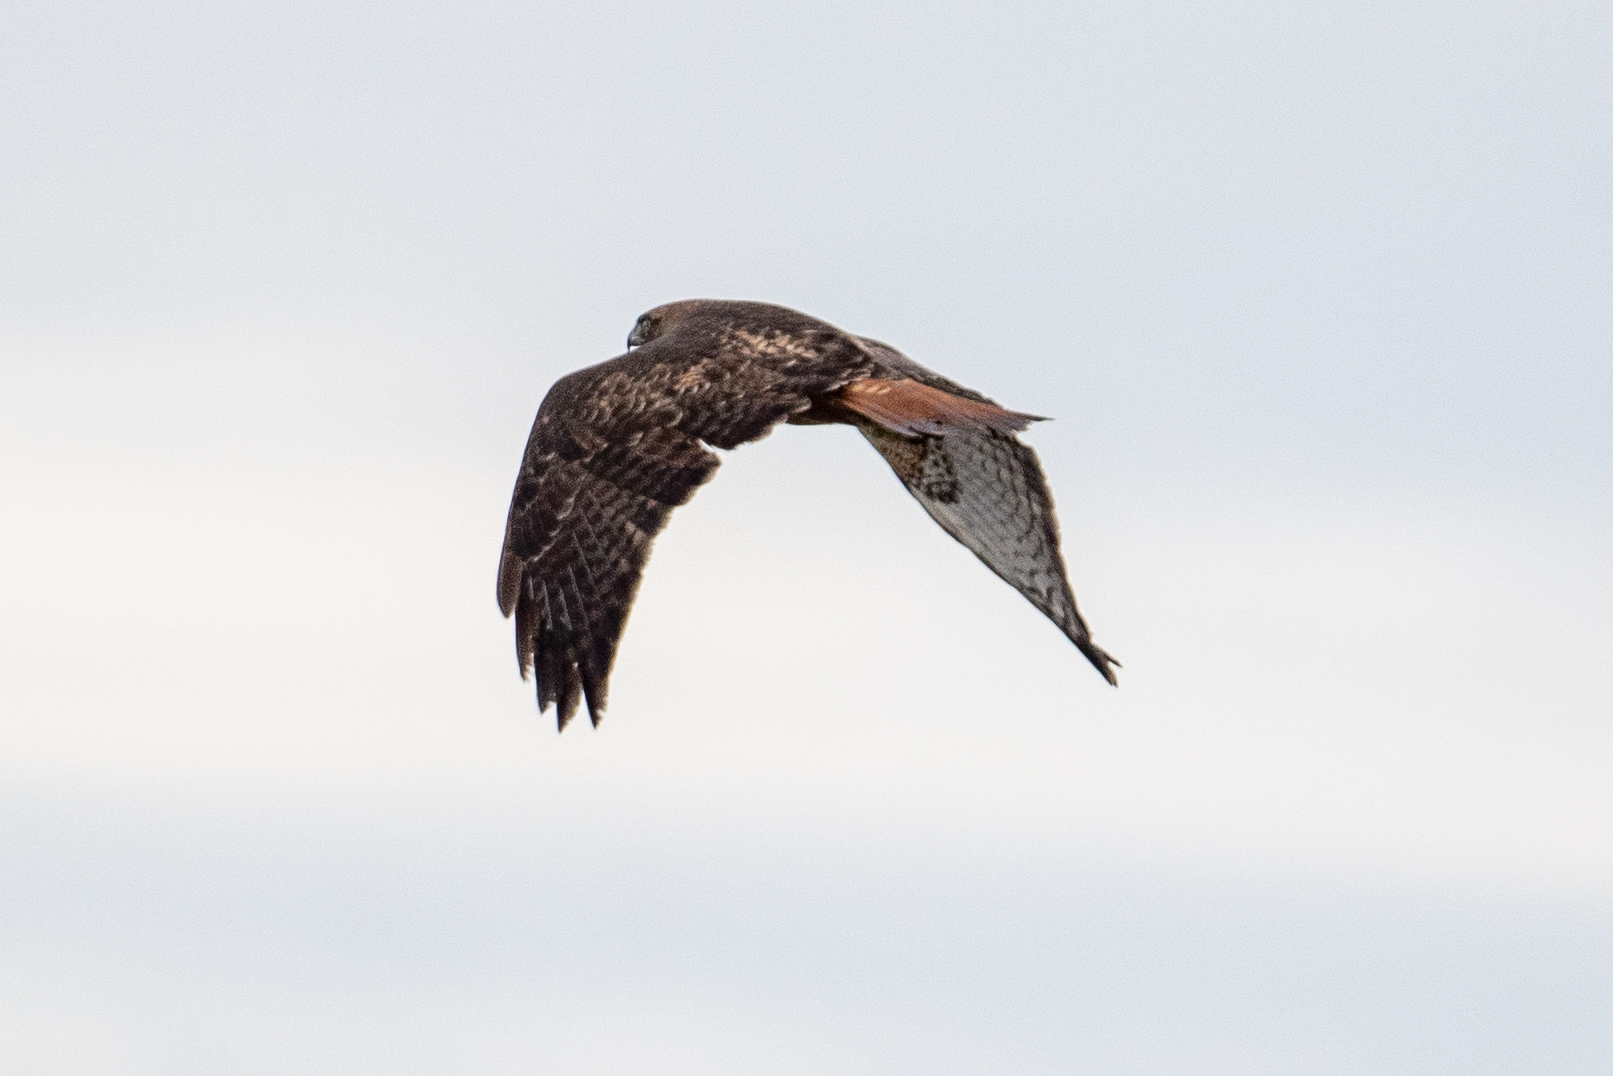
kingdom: Animalia
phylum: Chordata
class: Aves
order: Accipitriformes
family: Accipitridae
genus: Buteo
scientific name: Buteo jamaicensis
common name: Red-tailed hawk
